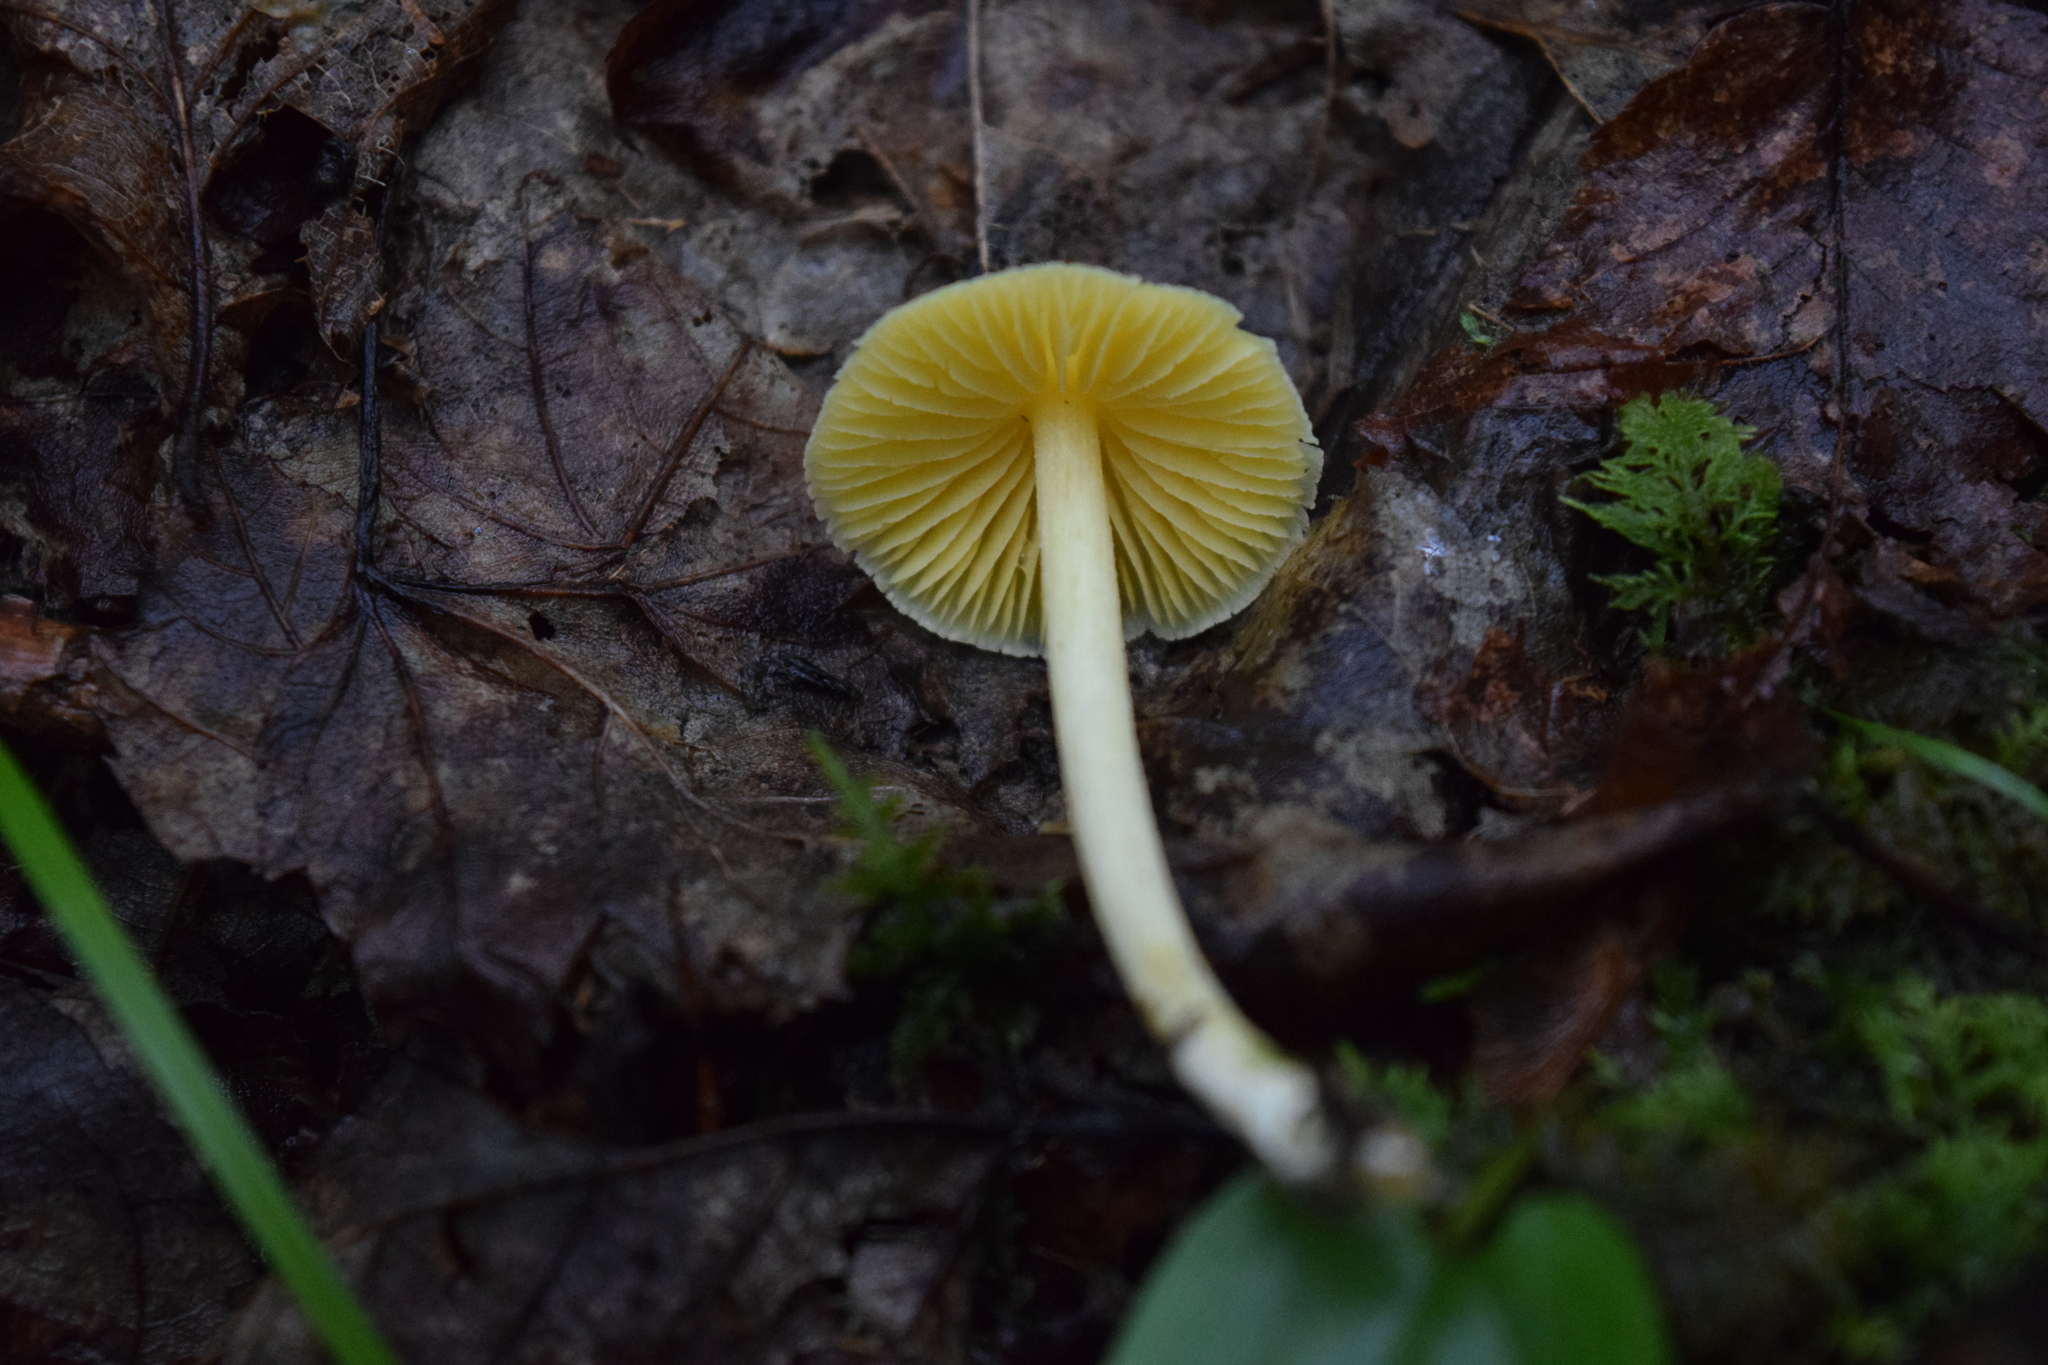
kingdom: Fungi
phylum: Basidiomycota
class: Agaricomycetes
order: Agaricales
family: Entolomataceae
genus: Entoloma
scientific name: Entoloma murrayi
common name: Yellow unicorn entoloma
